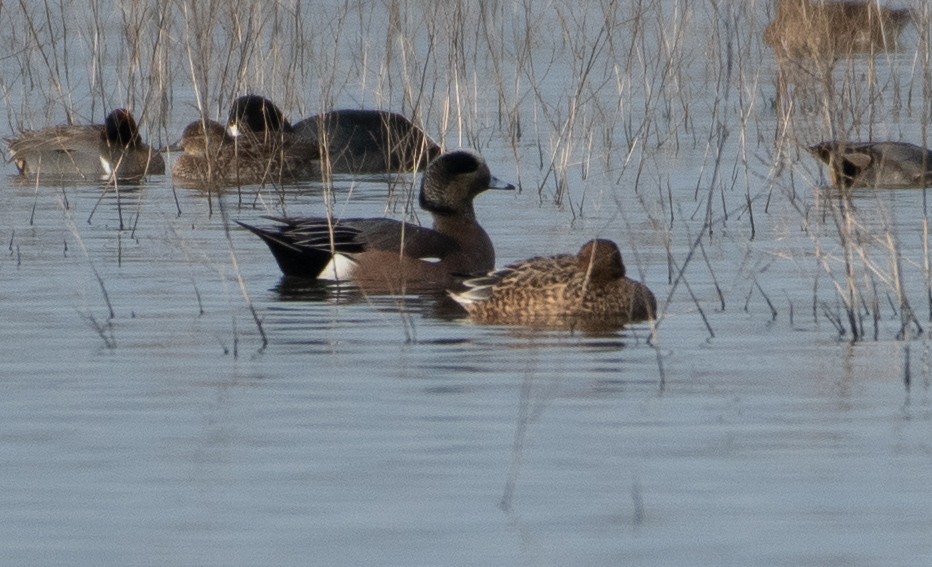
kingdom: Animalia
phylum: Chordata
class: Aves
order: Anseriformes
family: Anatidae
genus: Mareca
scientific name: Mareca americana
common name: American wigeon
